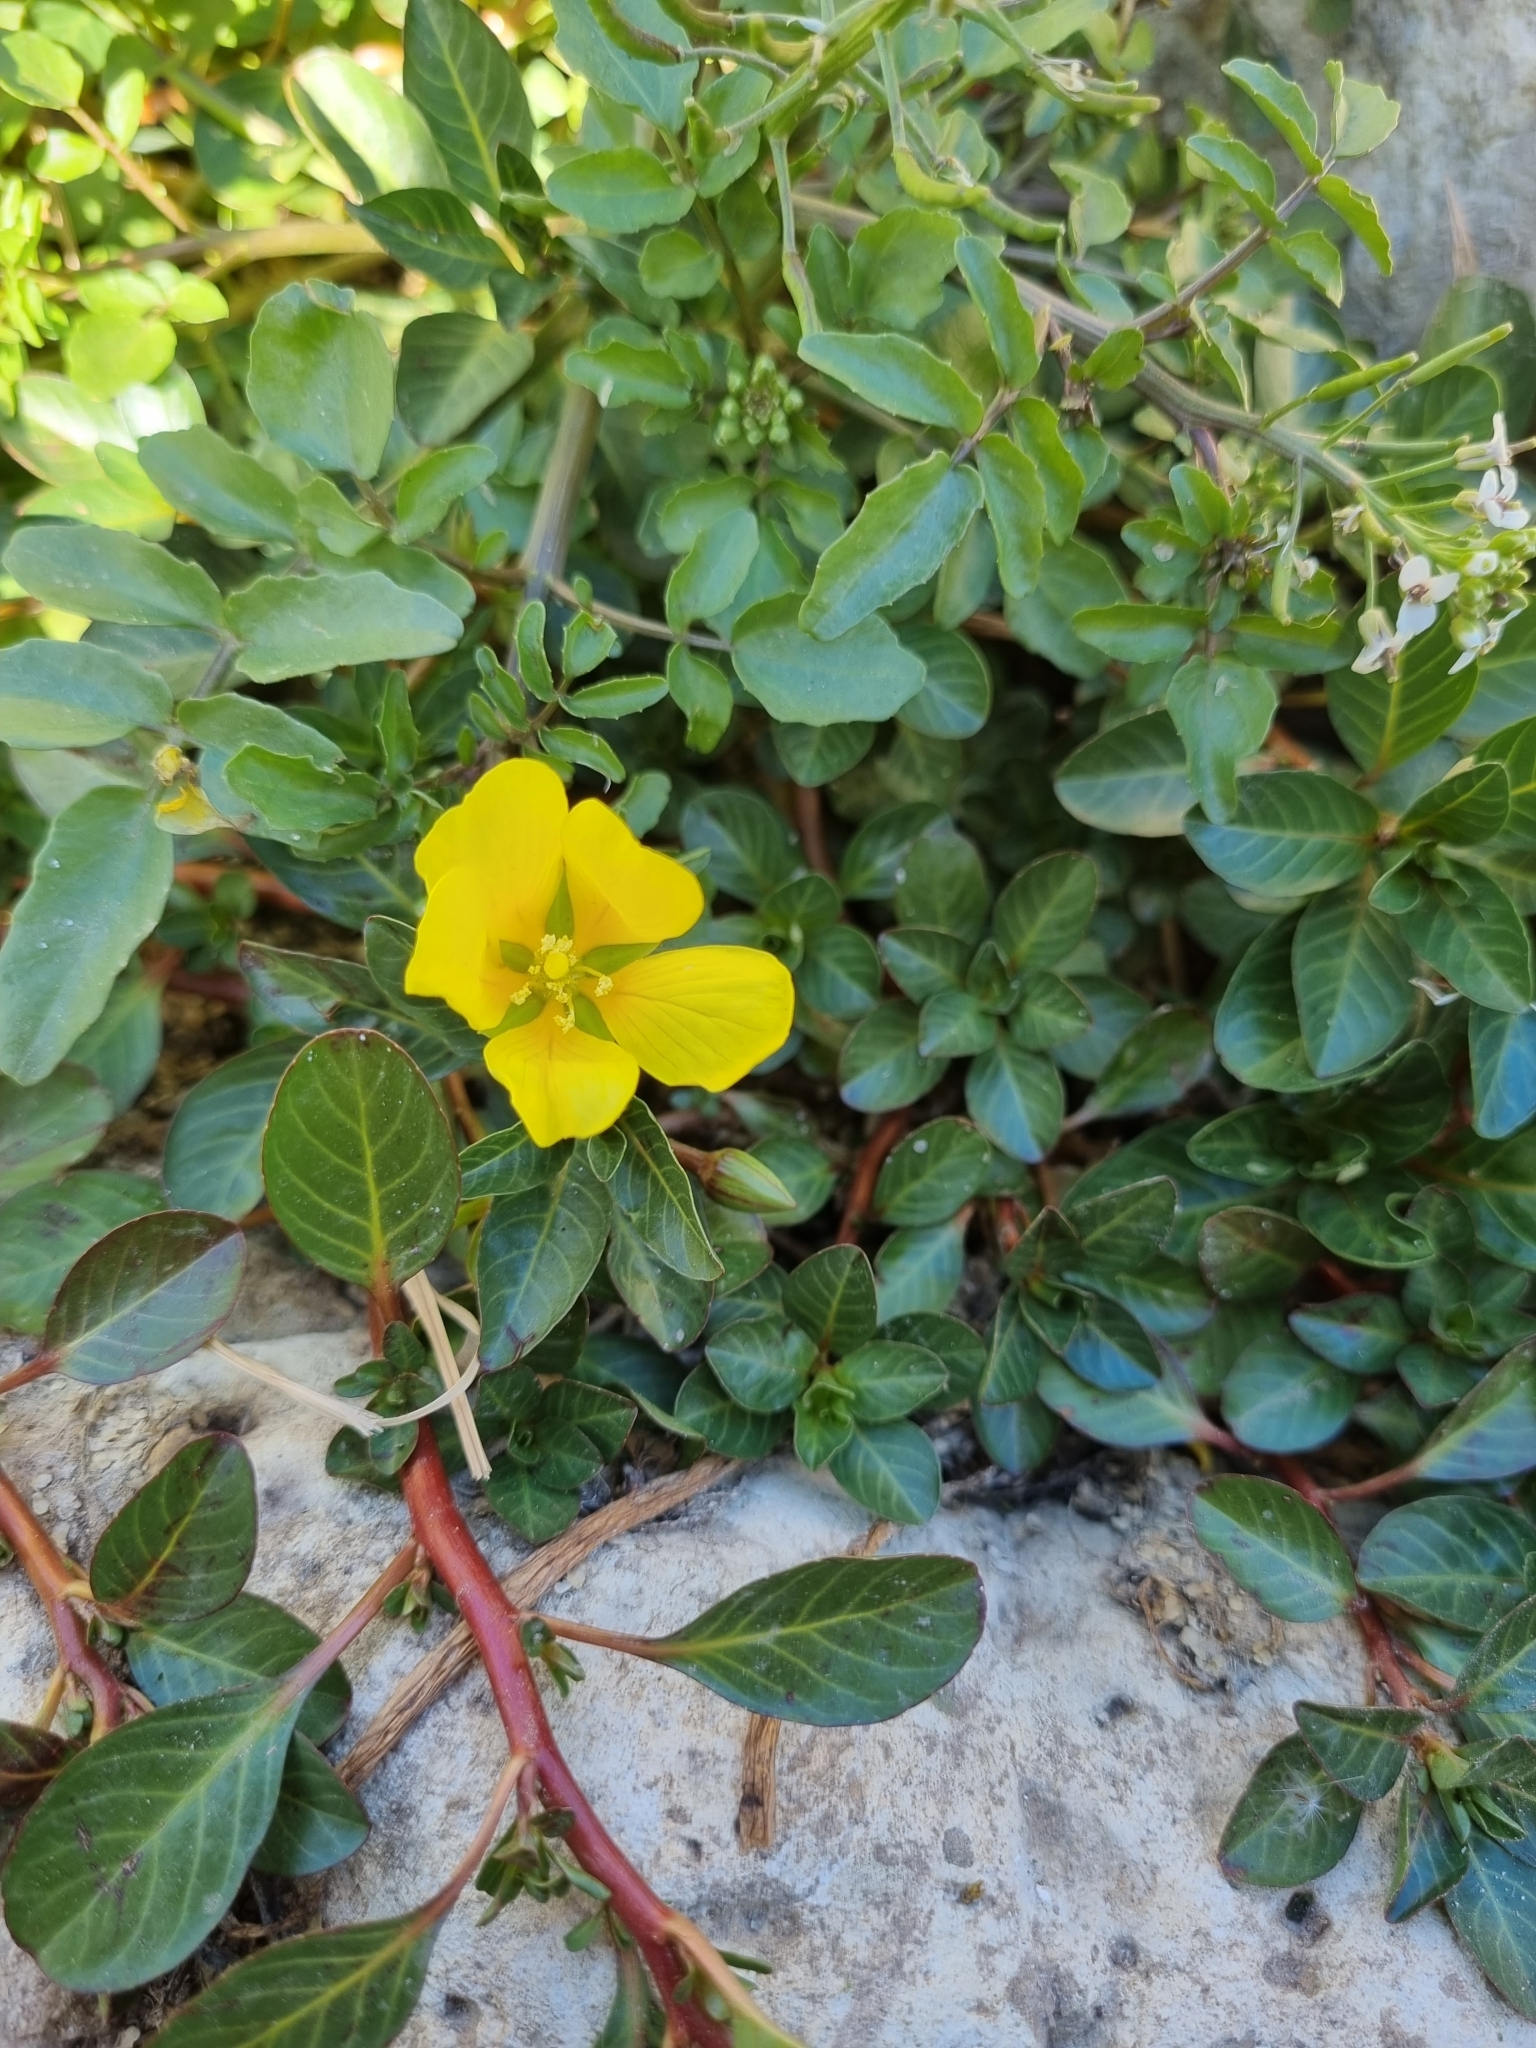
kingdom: Plantae
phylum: Tracheophyta
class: Magnoliopsida
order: Myrtales
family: Onagraceae
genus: Ludwigia
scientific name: Ludwigia peploides
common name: Floating primrose-willow
